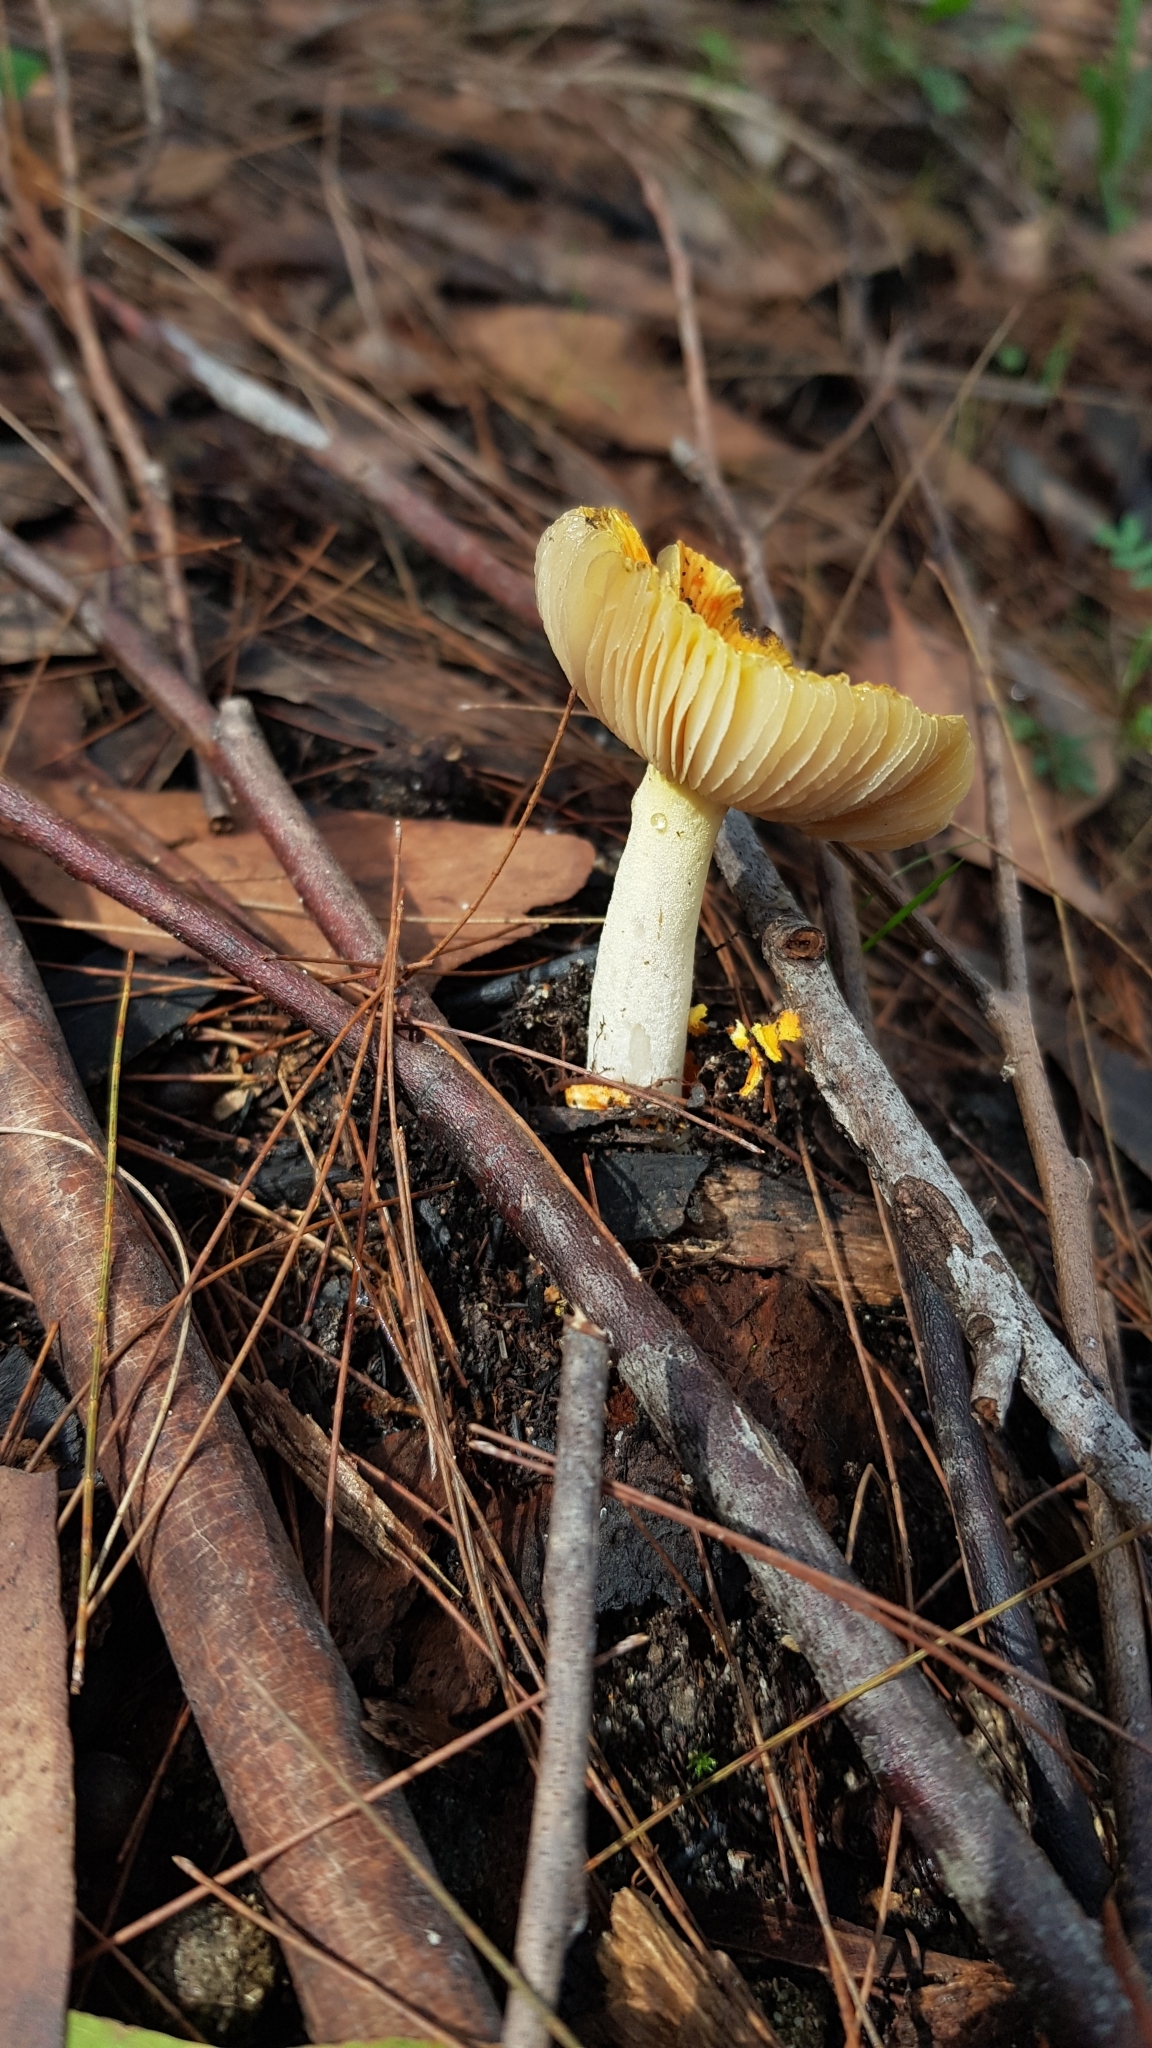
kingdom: Fungi
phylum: Basidiomycota
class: Agaricomycetes
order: Agaricales
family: Amanitaceae
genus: Amanita
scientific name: Amanita xanthocephala
